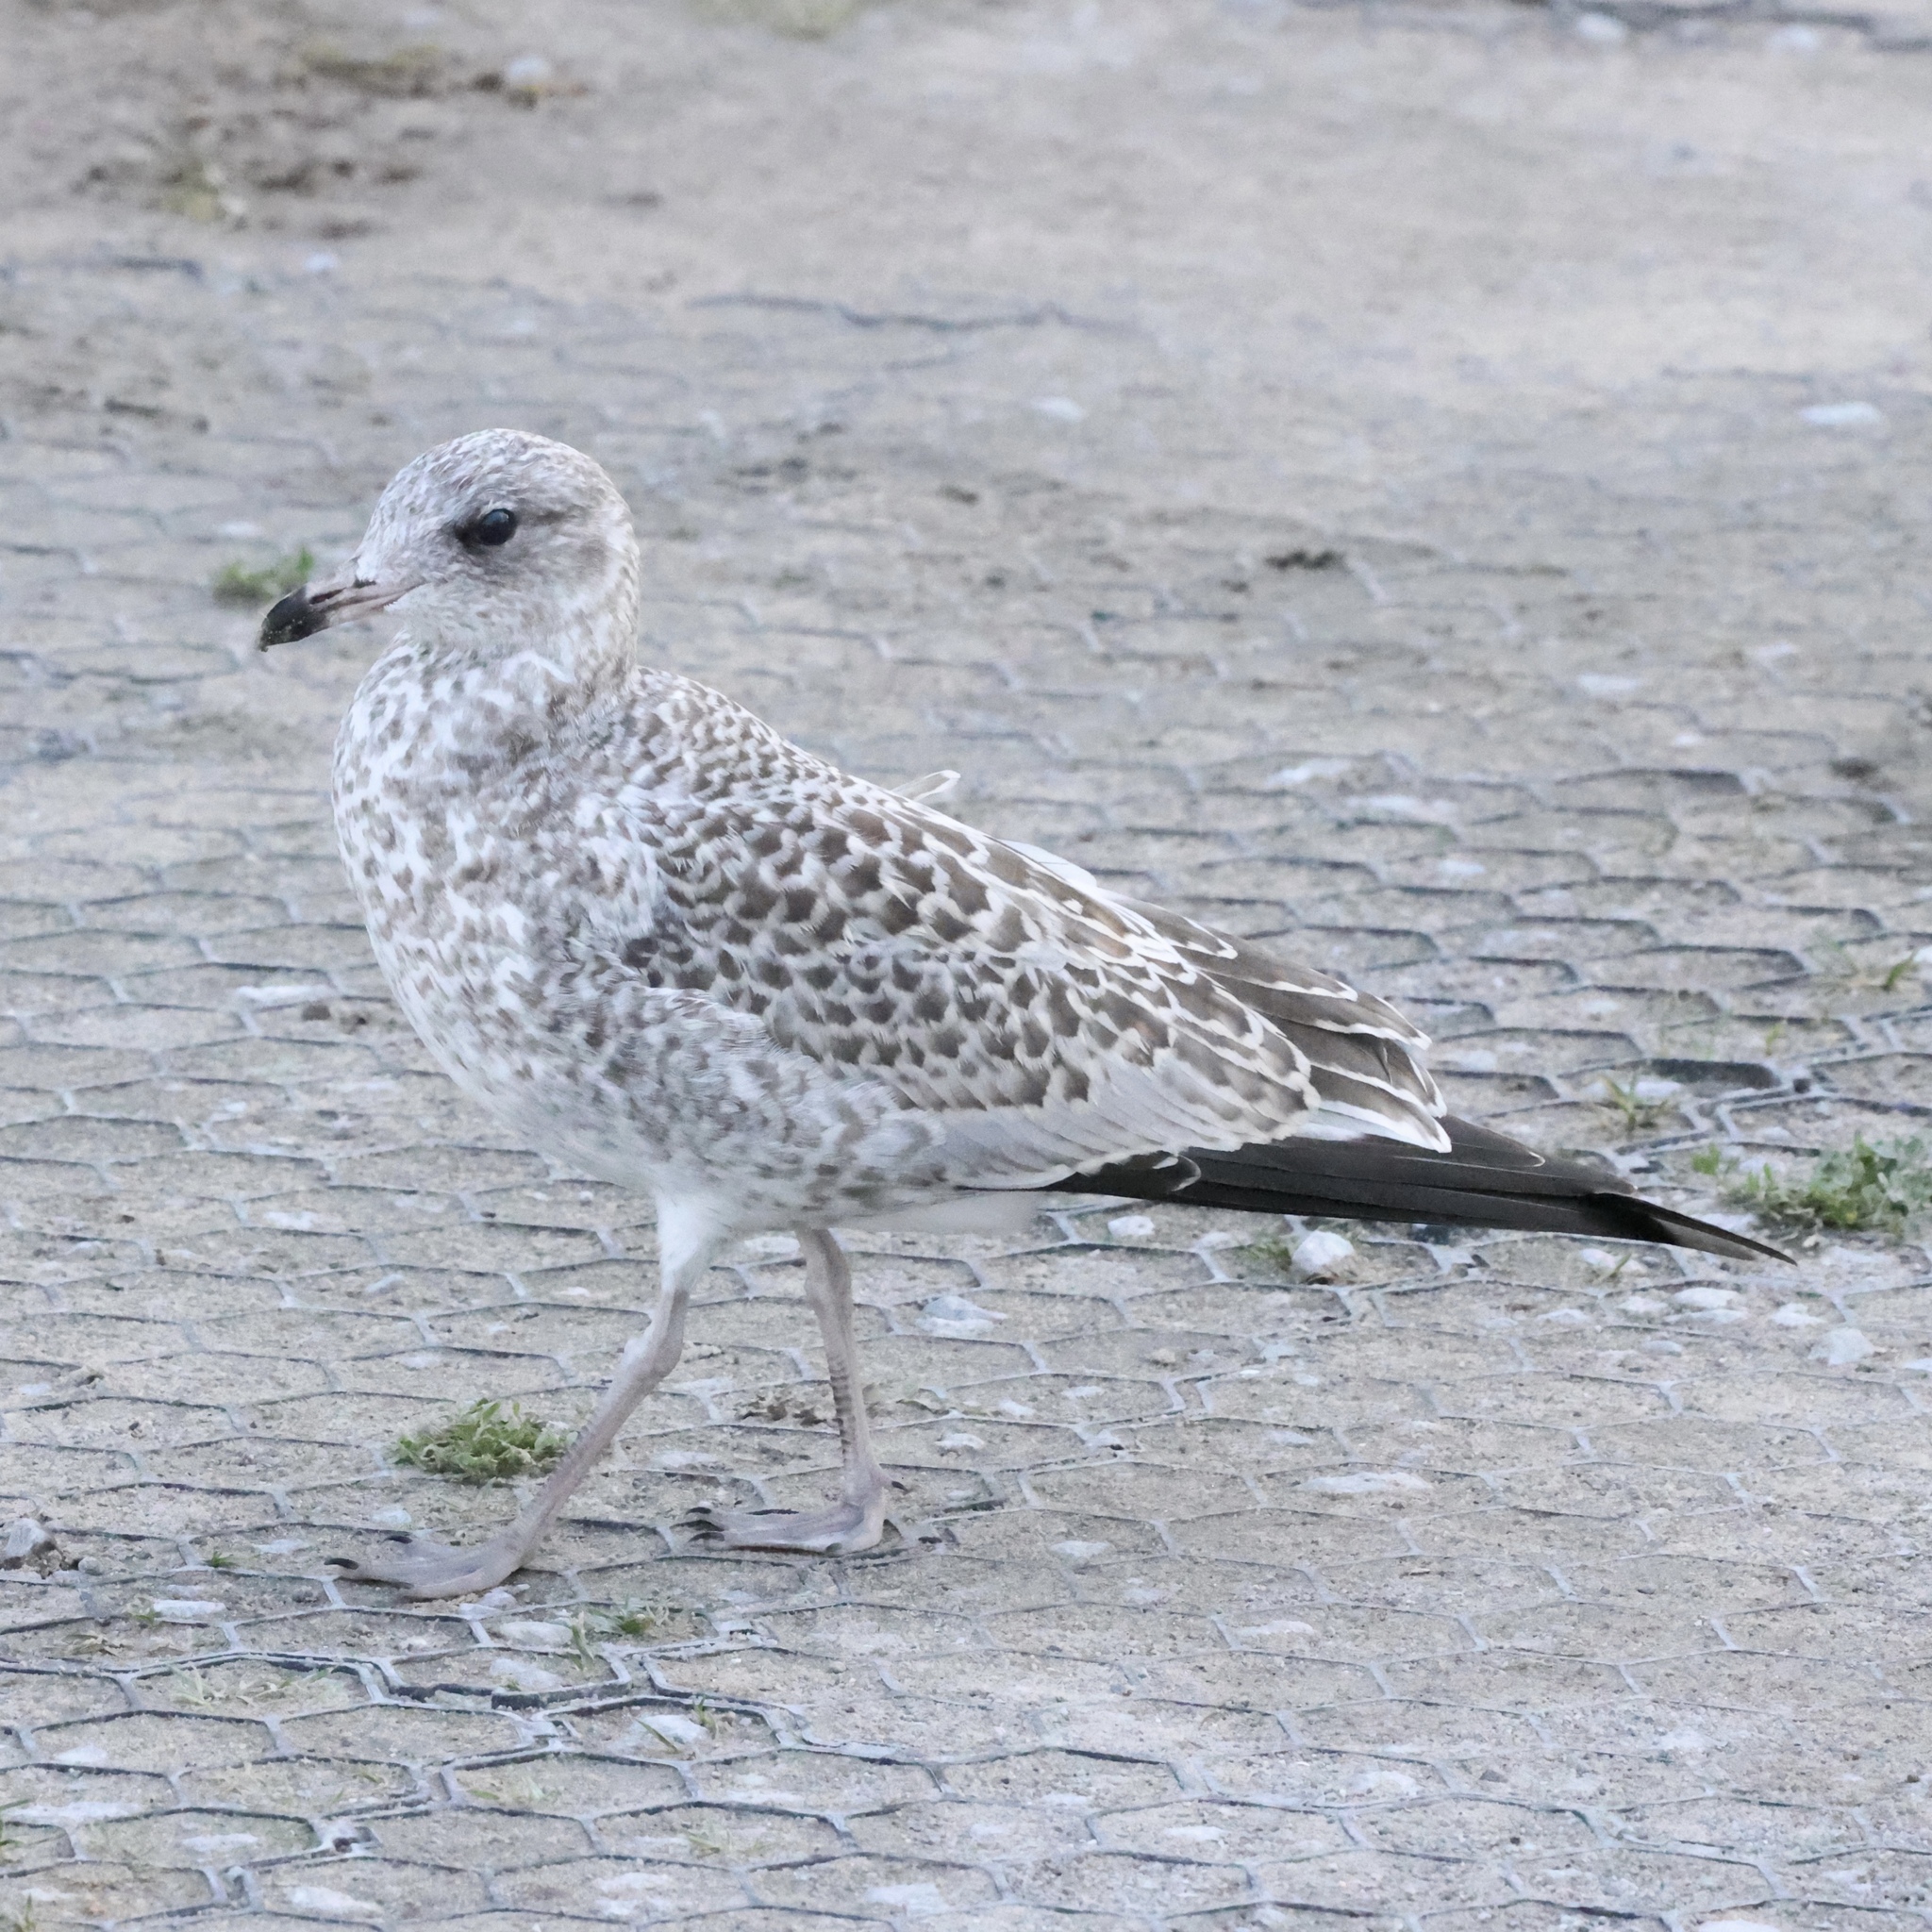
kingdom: Animalia
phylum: Chordata
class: Aves
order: Charadriiformes
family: Laridae
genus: Larus
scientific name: Larus delawarensis
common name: Ring-billed gull
